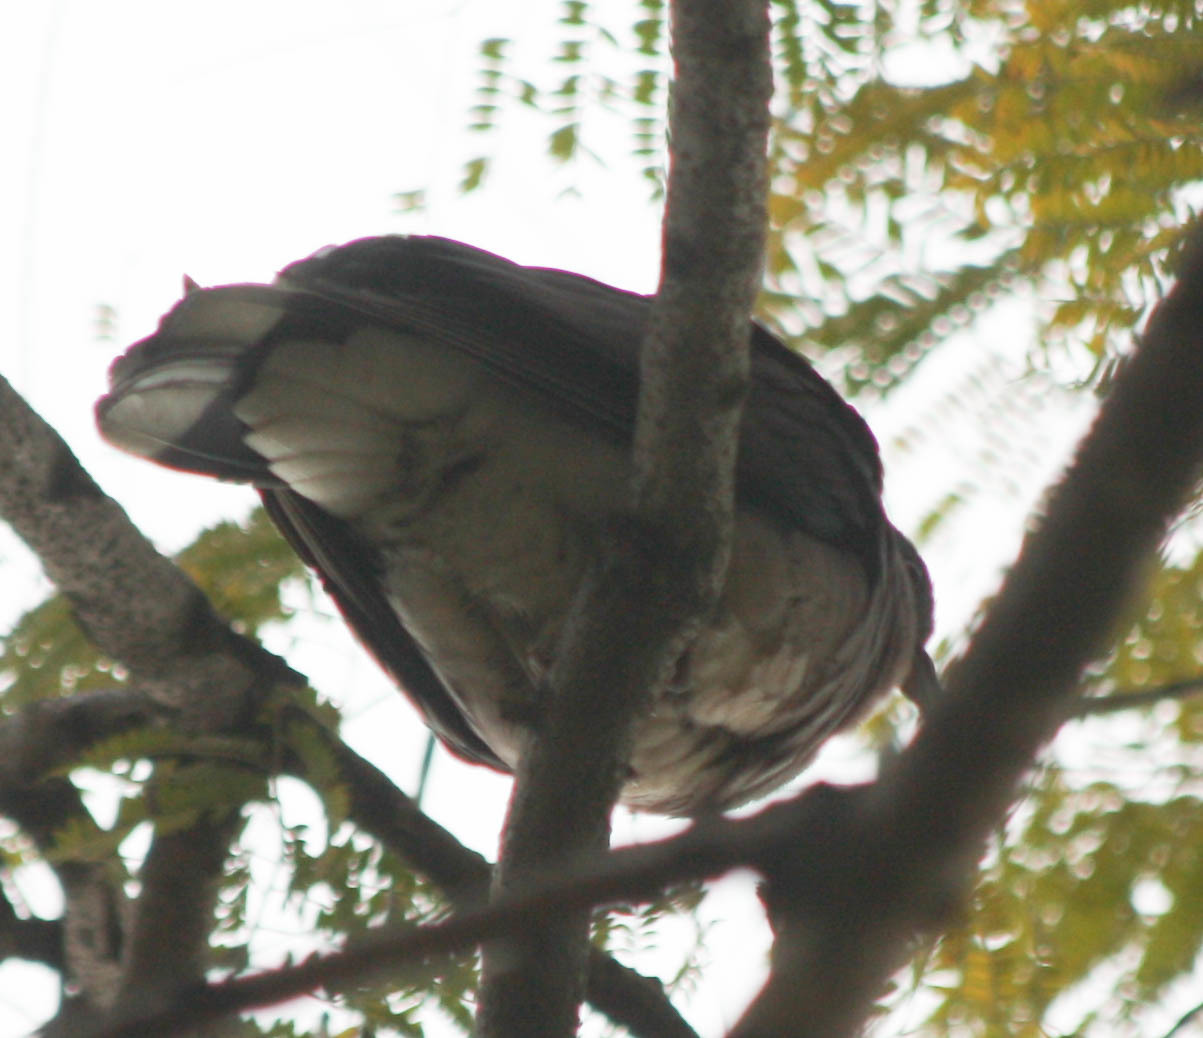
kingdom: Animalia
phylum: Chordata
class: Aves
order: Columbiformes
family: Columbidae
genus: Nesoenas
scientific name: Nesoenas picturatus
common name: Malagasy turtle dove
